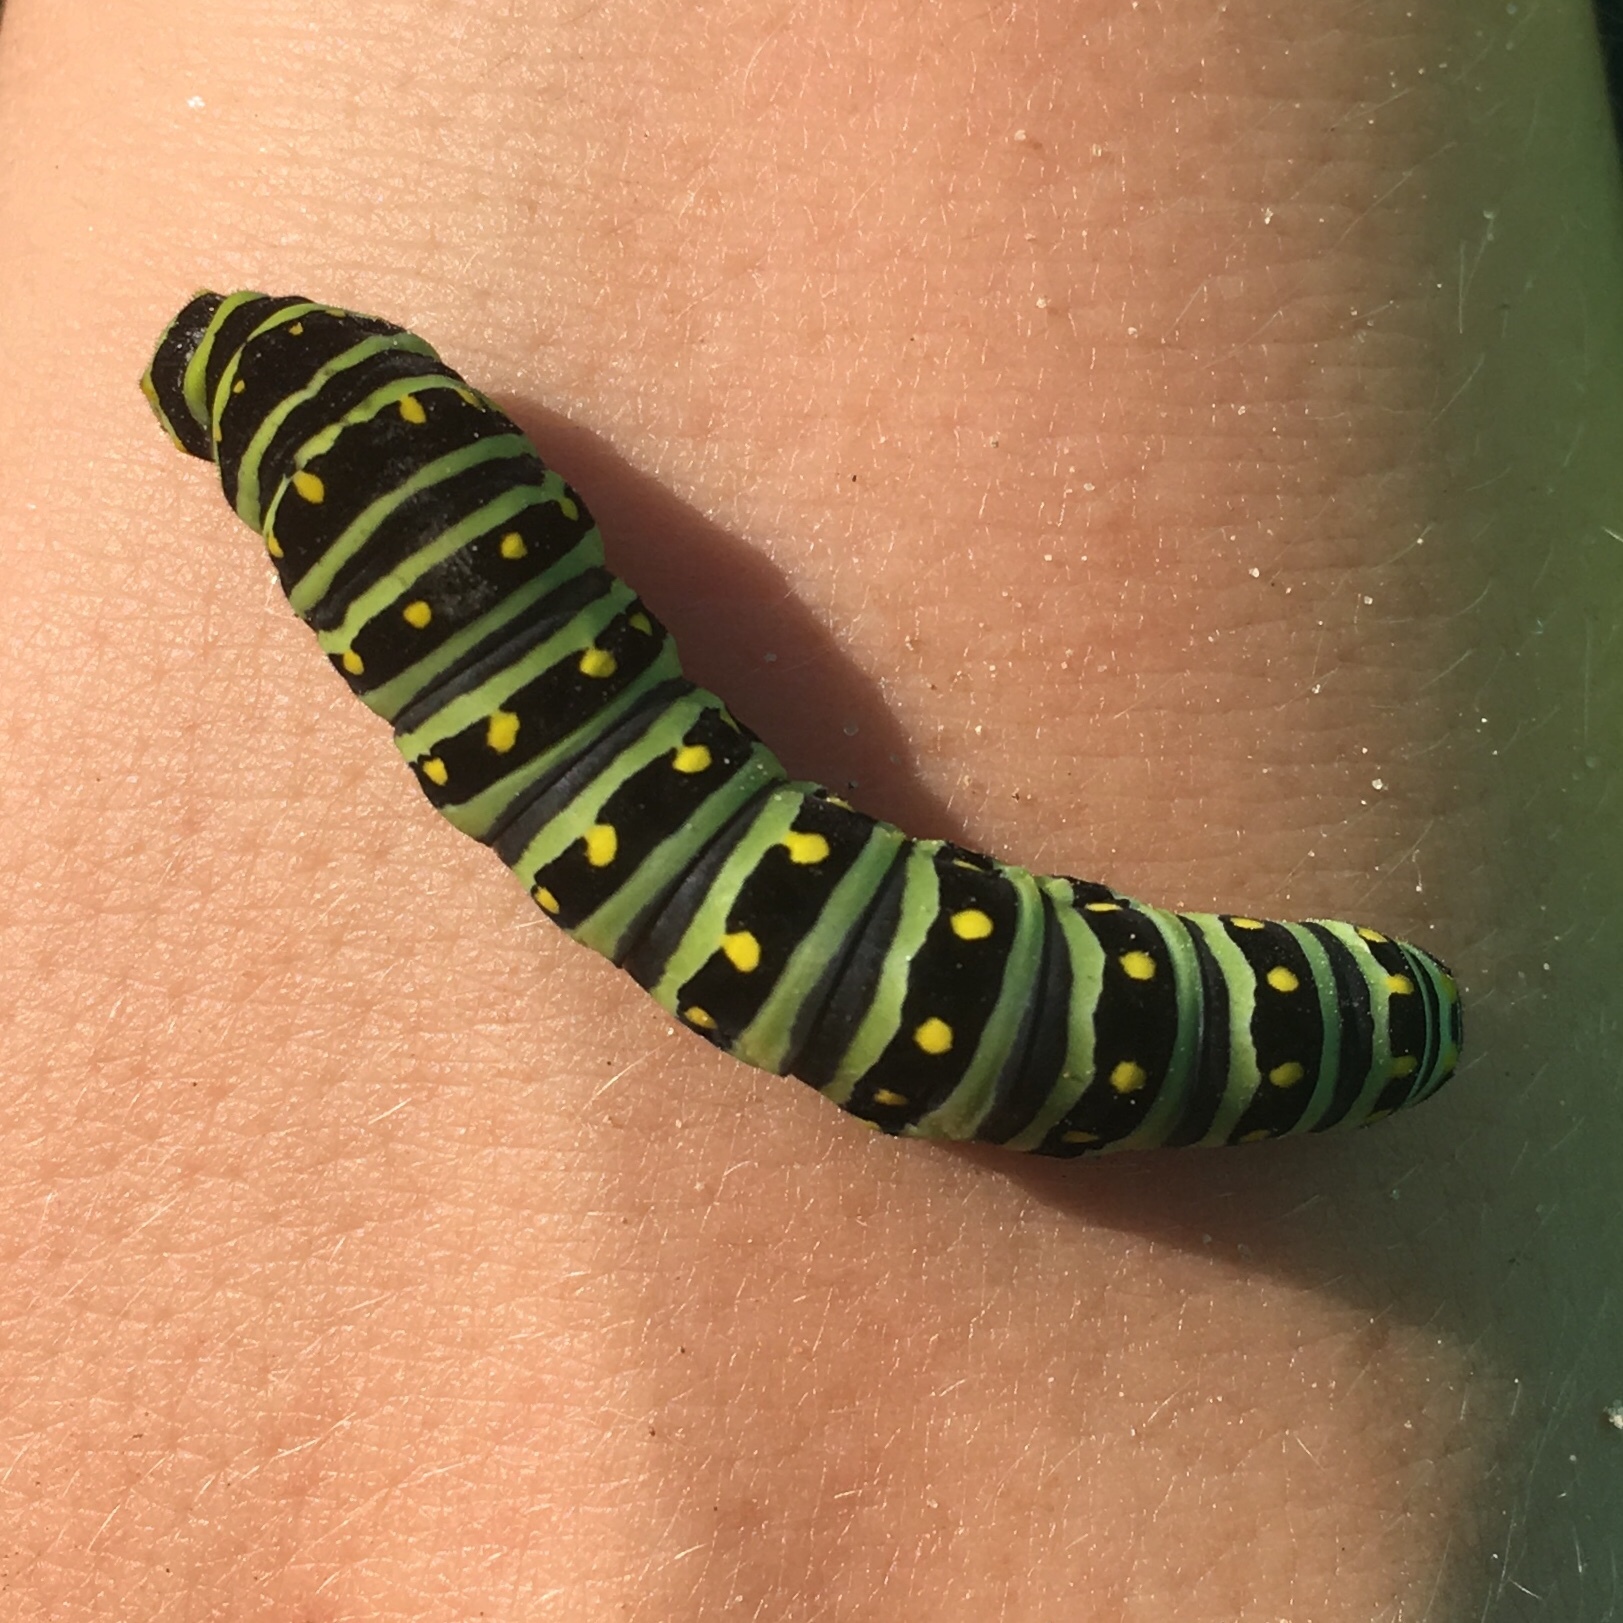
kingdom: Animalia
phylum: Arthropoda
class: Insecta
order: Lepidoptera
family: Papilionidae
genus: Papilio
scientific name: Papilio polyxenes
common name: Black swallowtail
